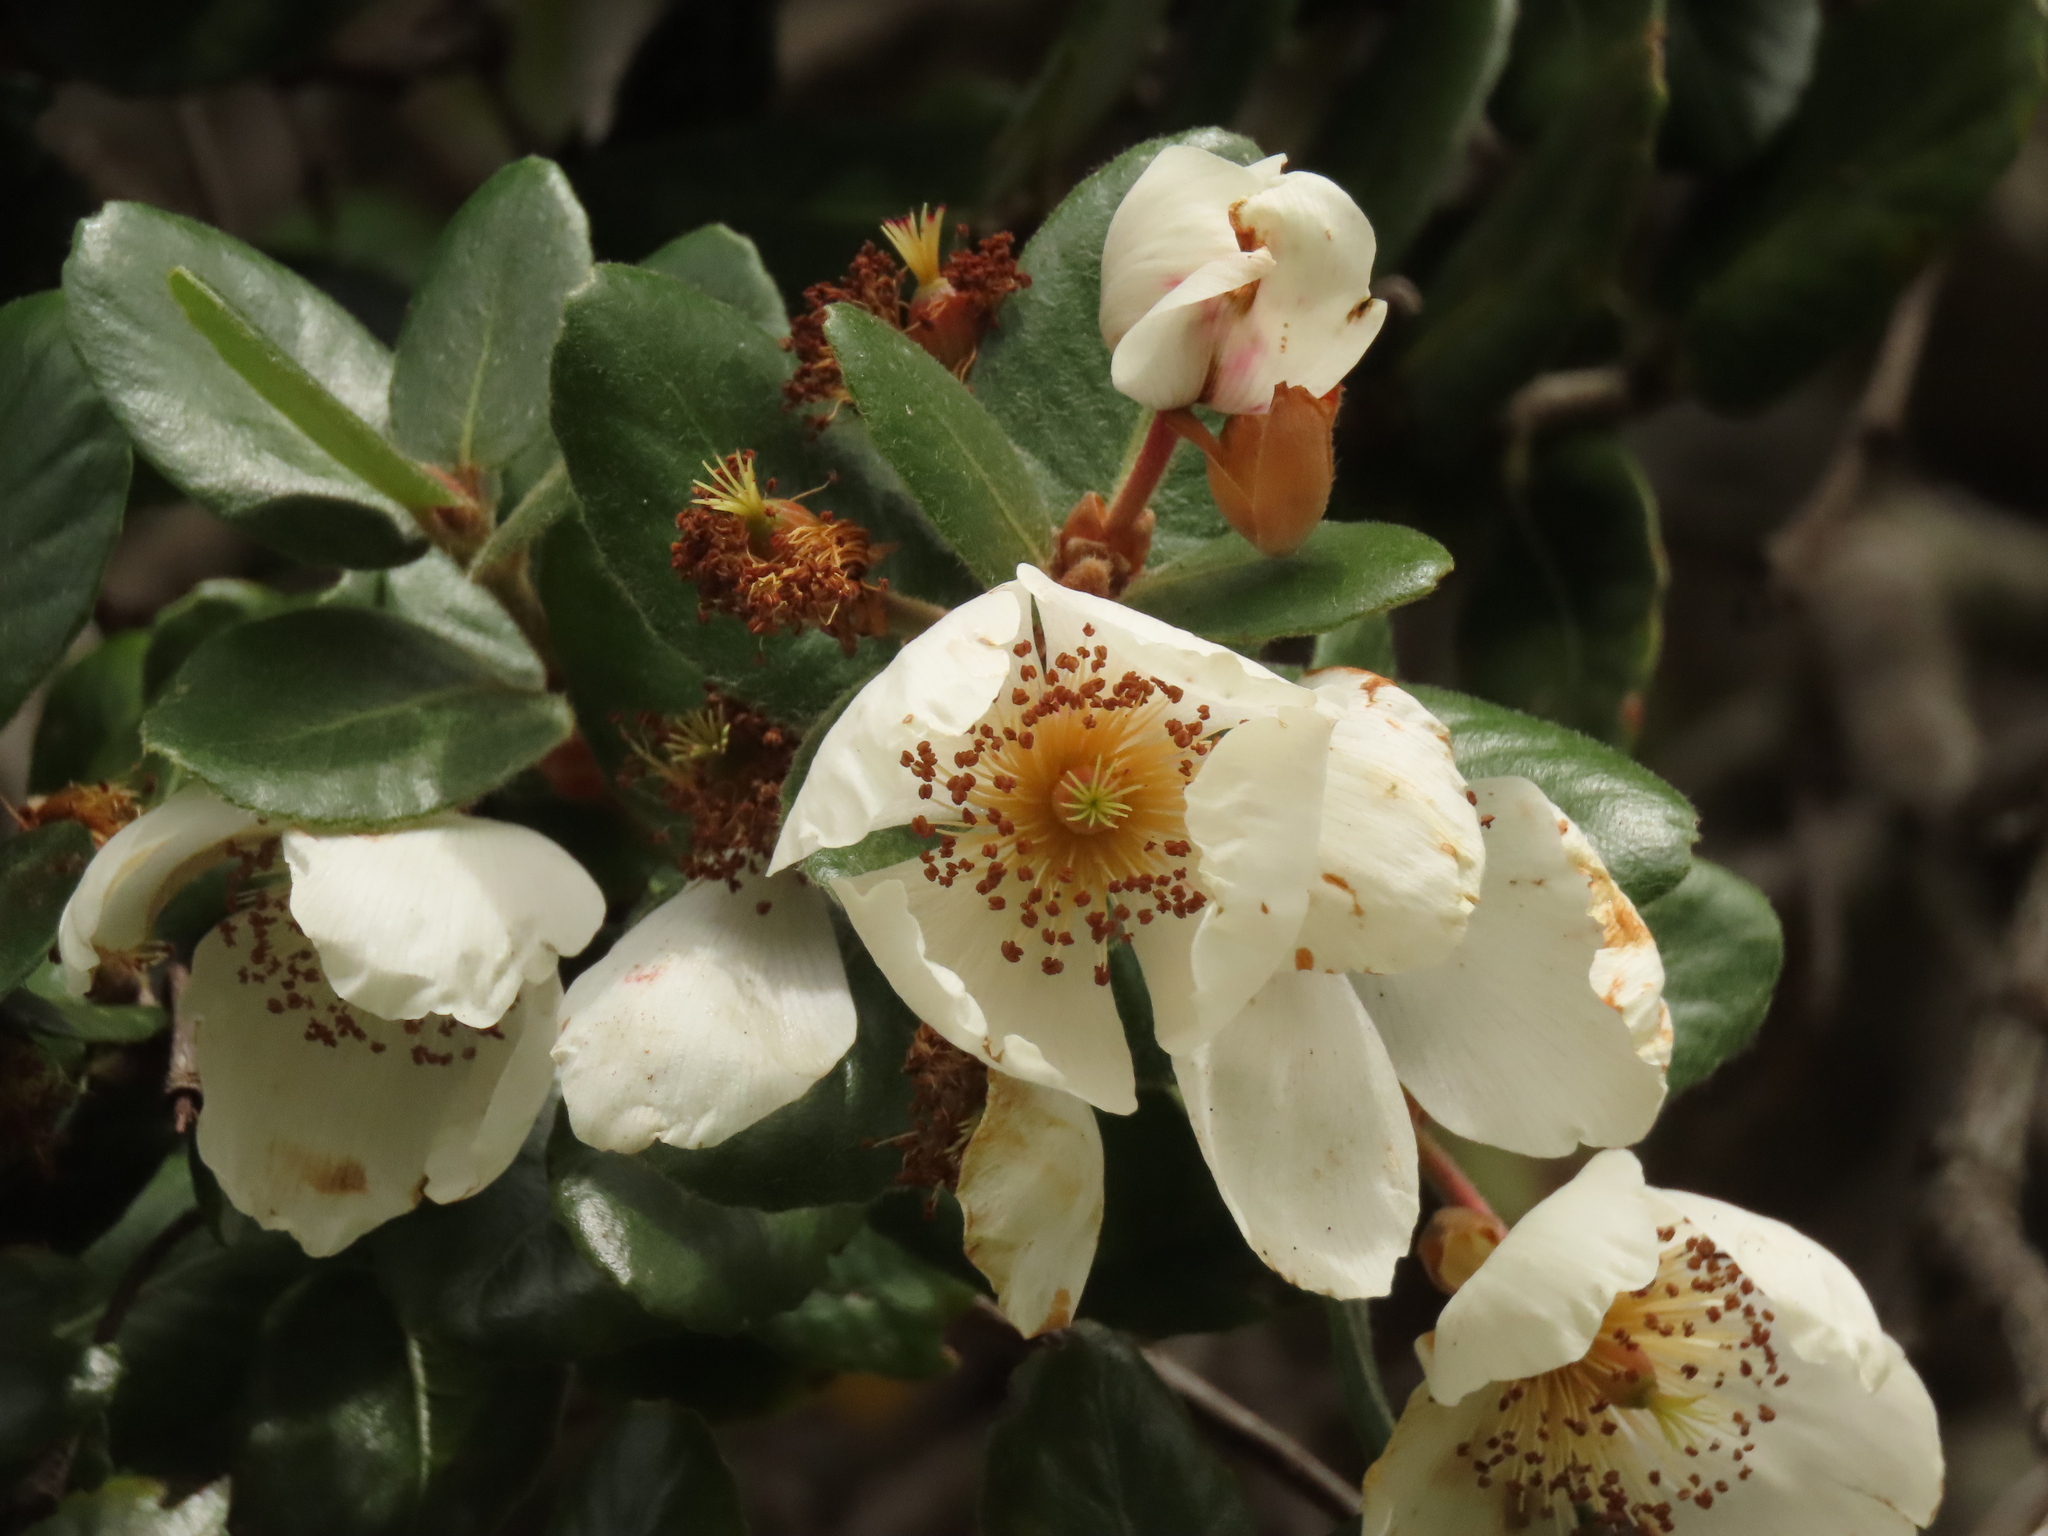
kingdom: Plantae
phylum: Tracheophyta
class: Magnoliopsida
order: Oxalidales
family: Cunoniaceae
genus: Eucryphia
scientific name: Eucryphia cordifolia
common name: Ulmo
